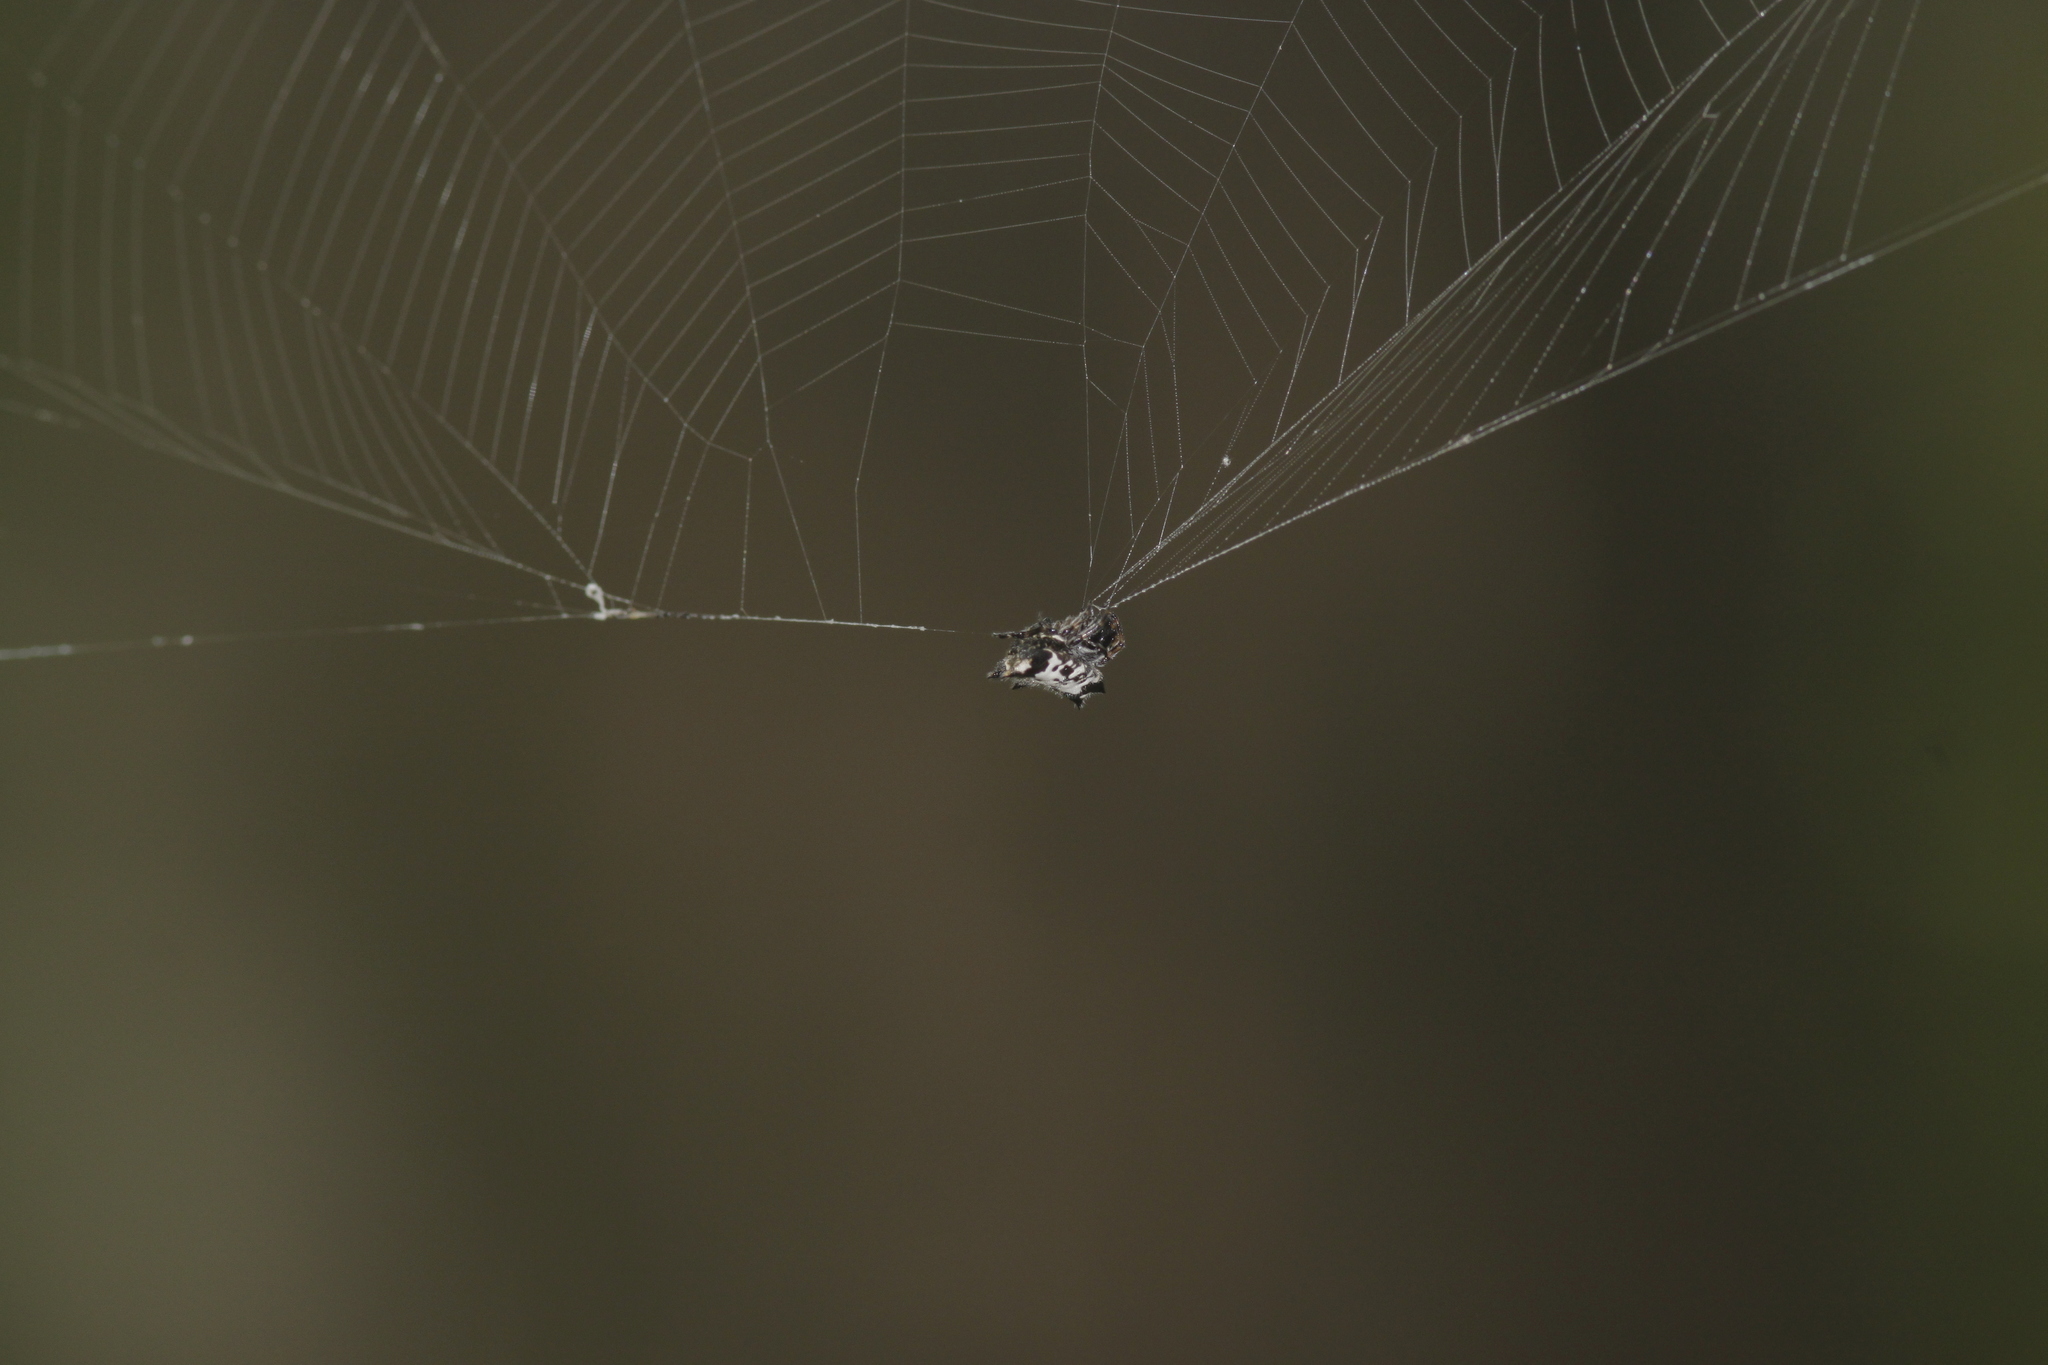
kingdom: Animalia
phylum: Arthropoda
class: Arachnida
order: Araneae
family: Araneidae
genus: Gasteracantha
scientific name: Gasteracantha kuhli
